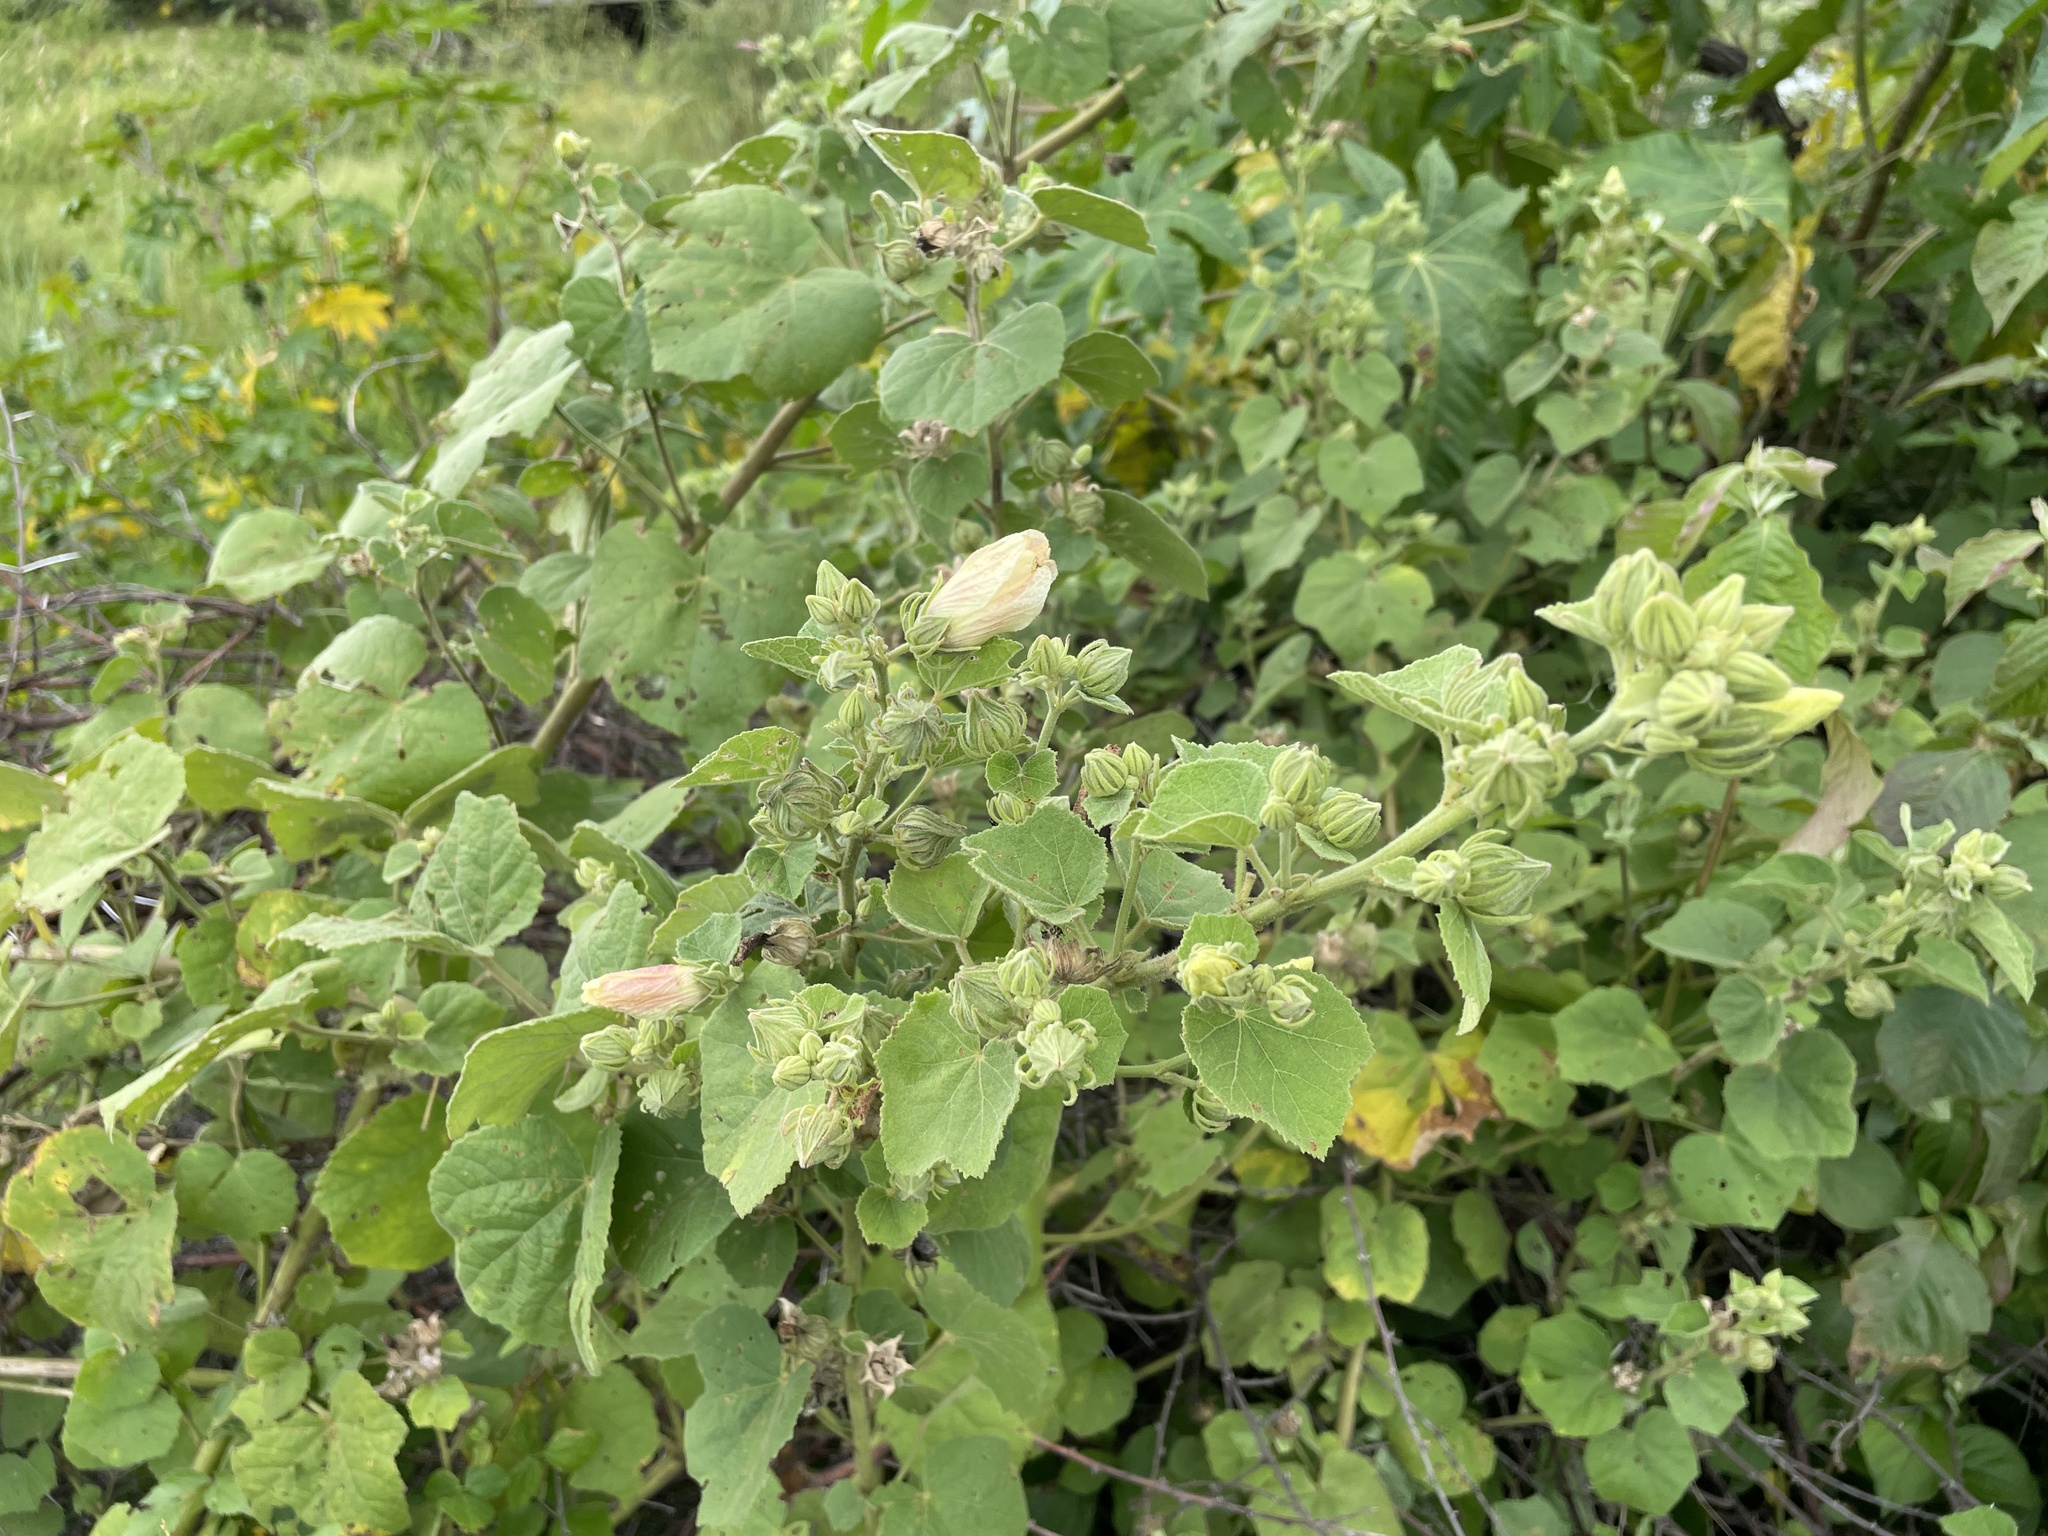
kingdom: Plantae
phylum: Tracheophyta
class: Magnoliopsida
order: Malvales
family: Malvaceae
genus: Pavonia
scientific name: Pavonia senegalensis
